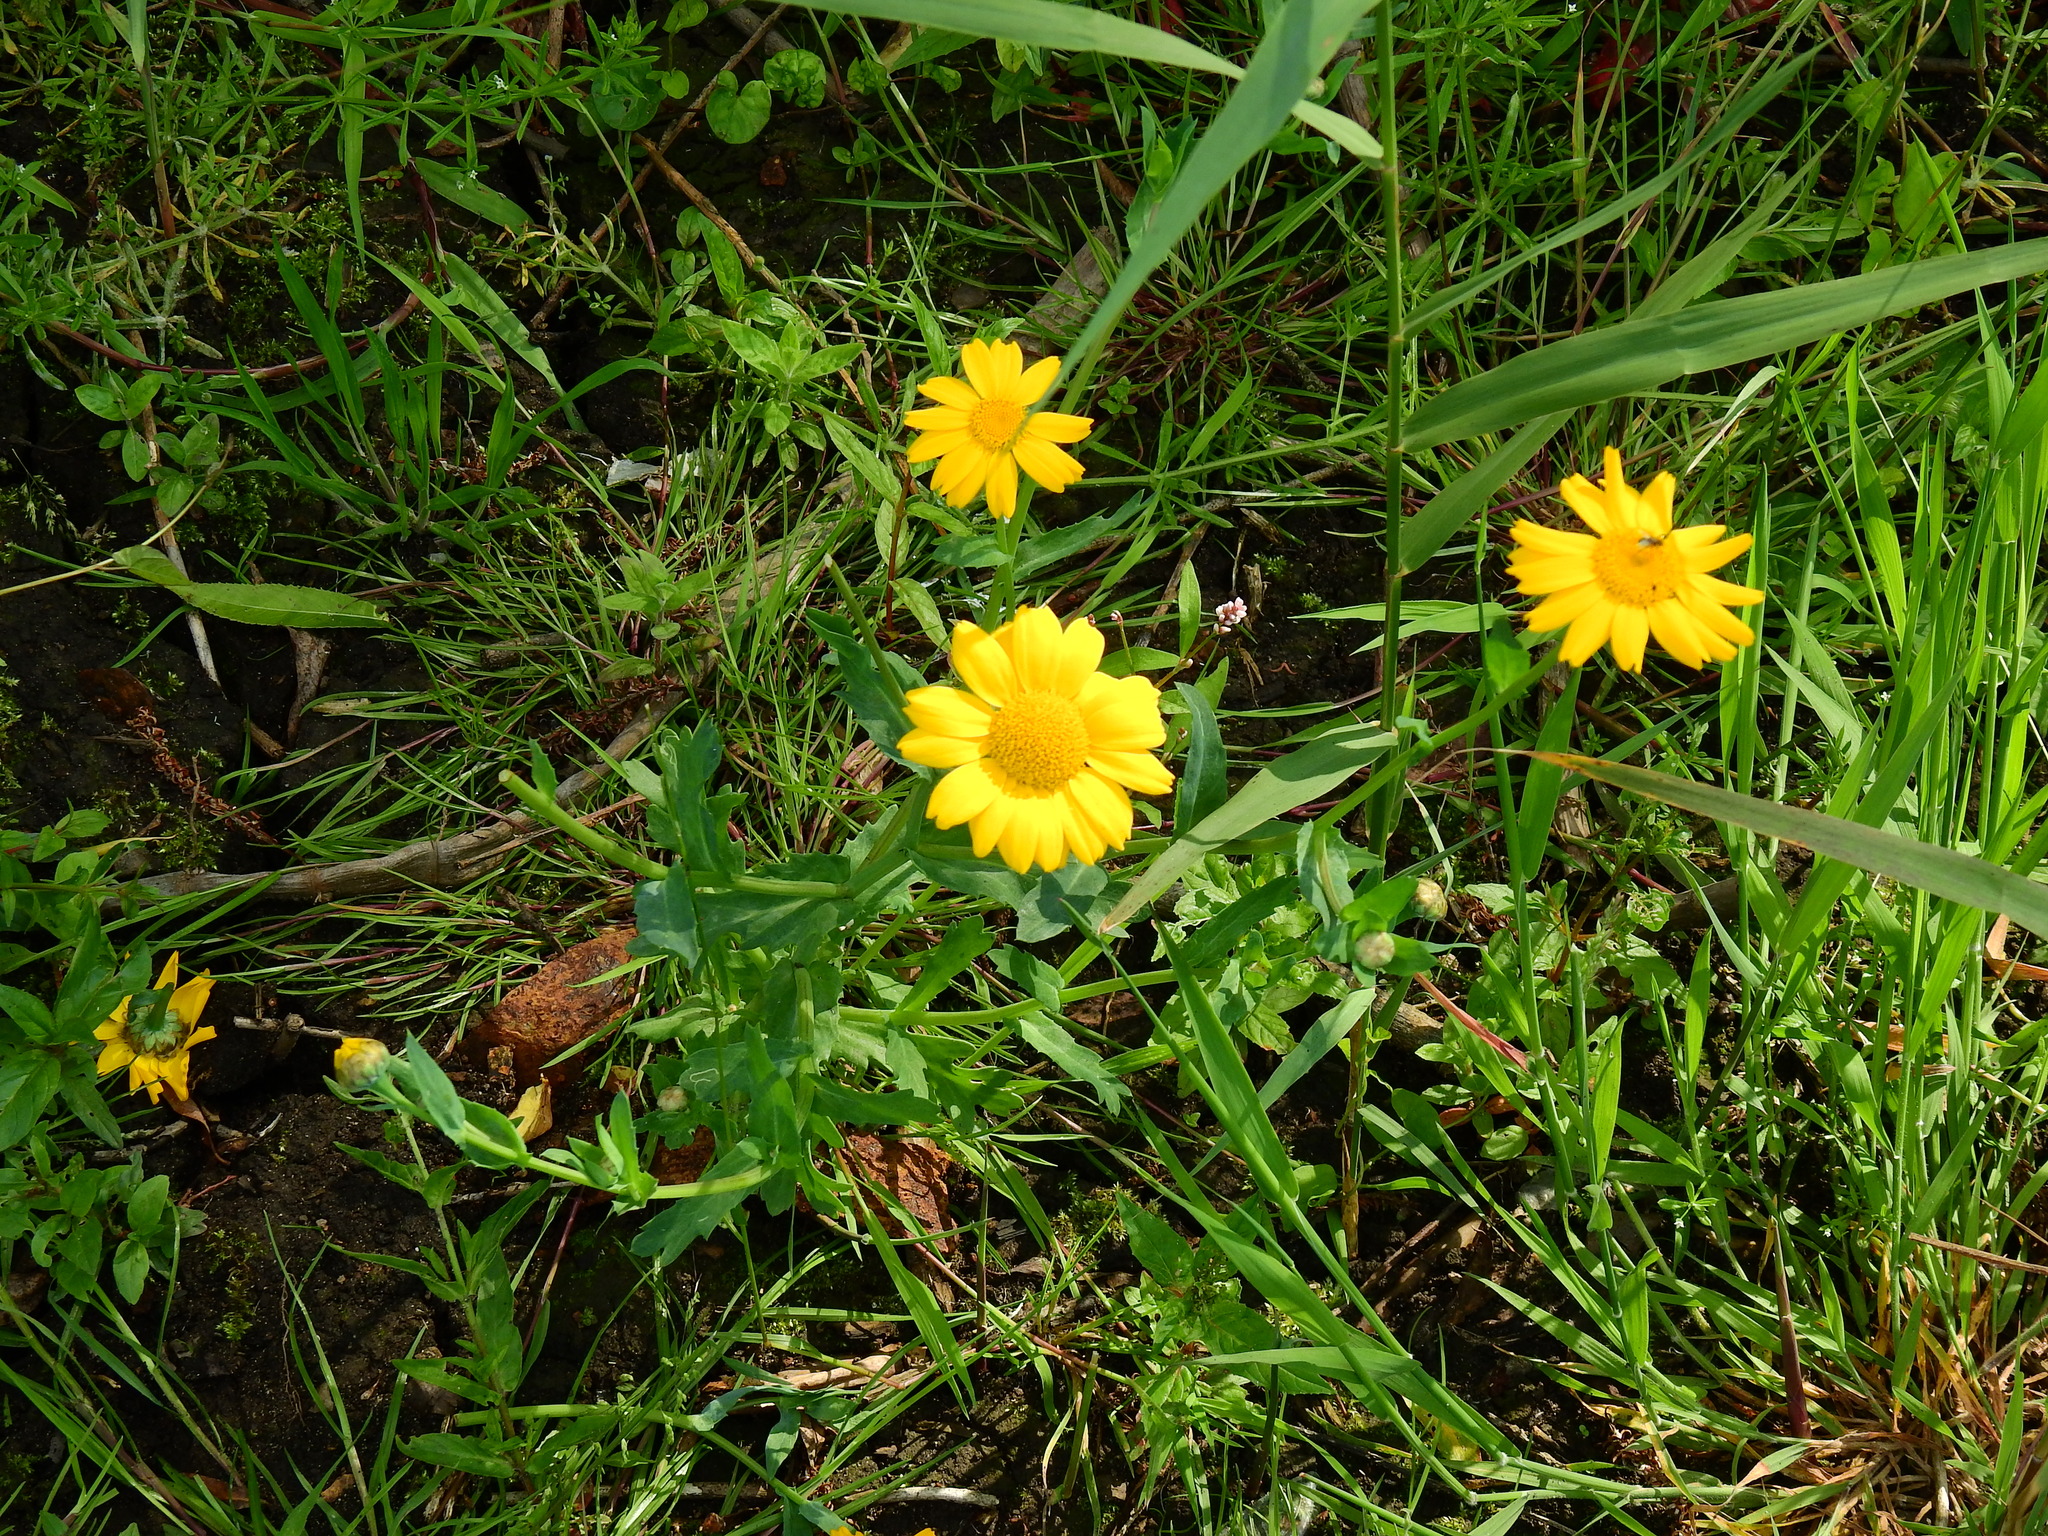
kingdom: Plantae
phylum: Tracheophyta
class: Magnoliopsida
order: Asterales
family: Asteraceae
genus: Glebionis
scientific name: Glebionis segetum
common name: Corndaisy
